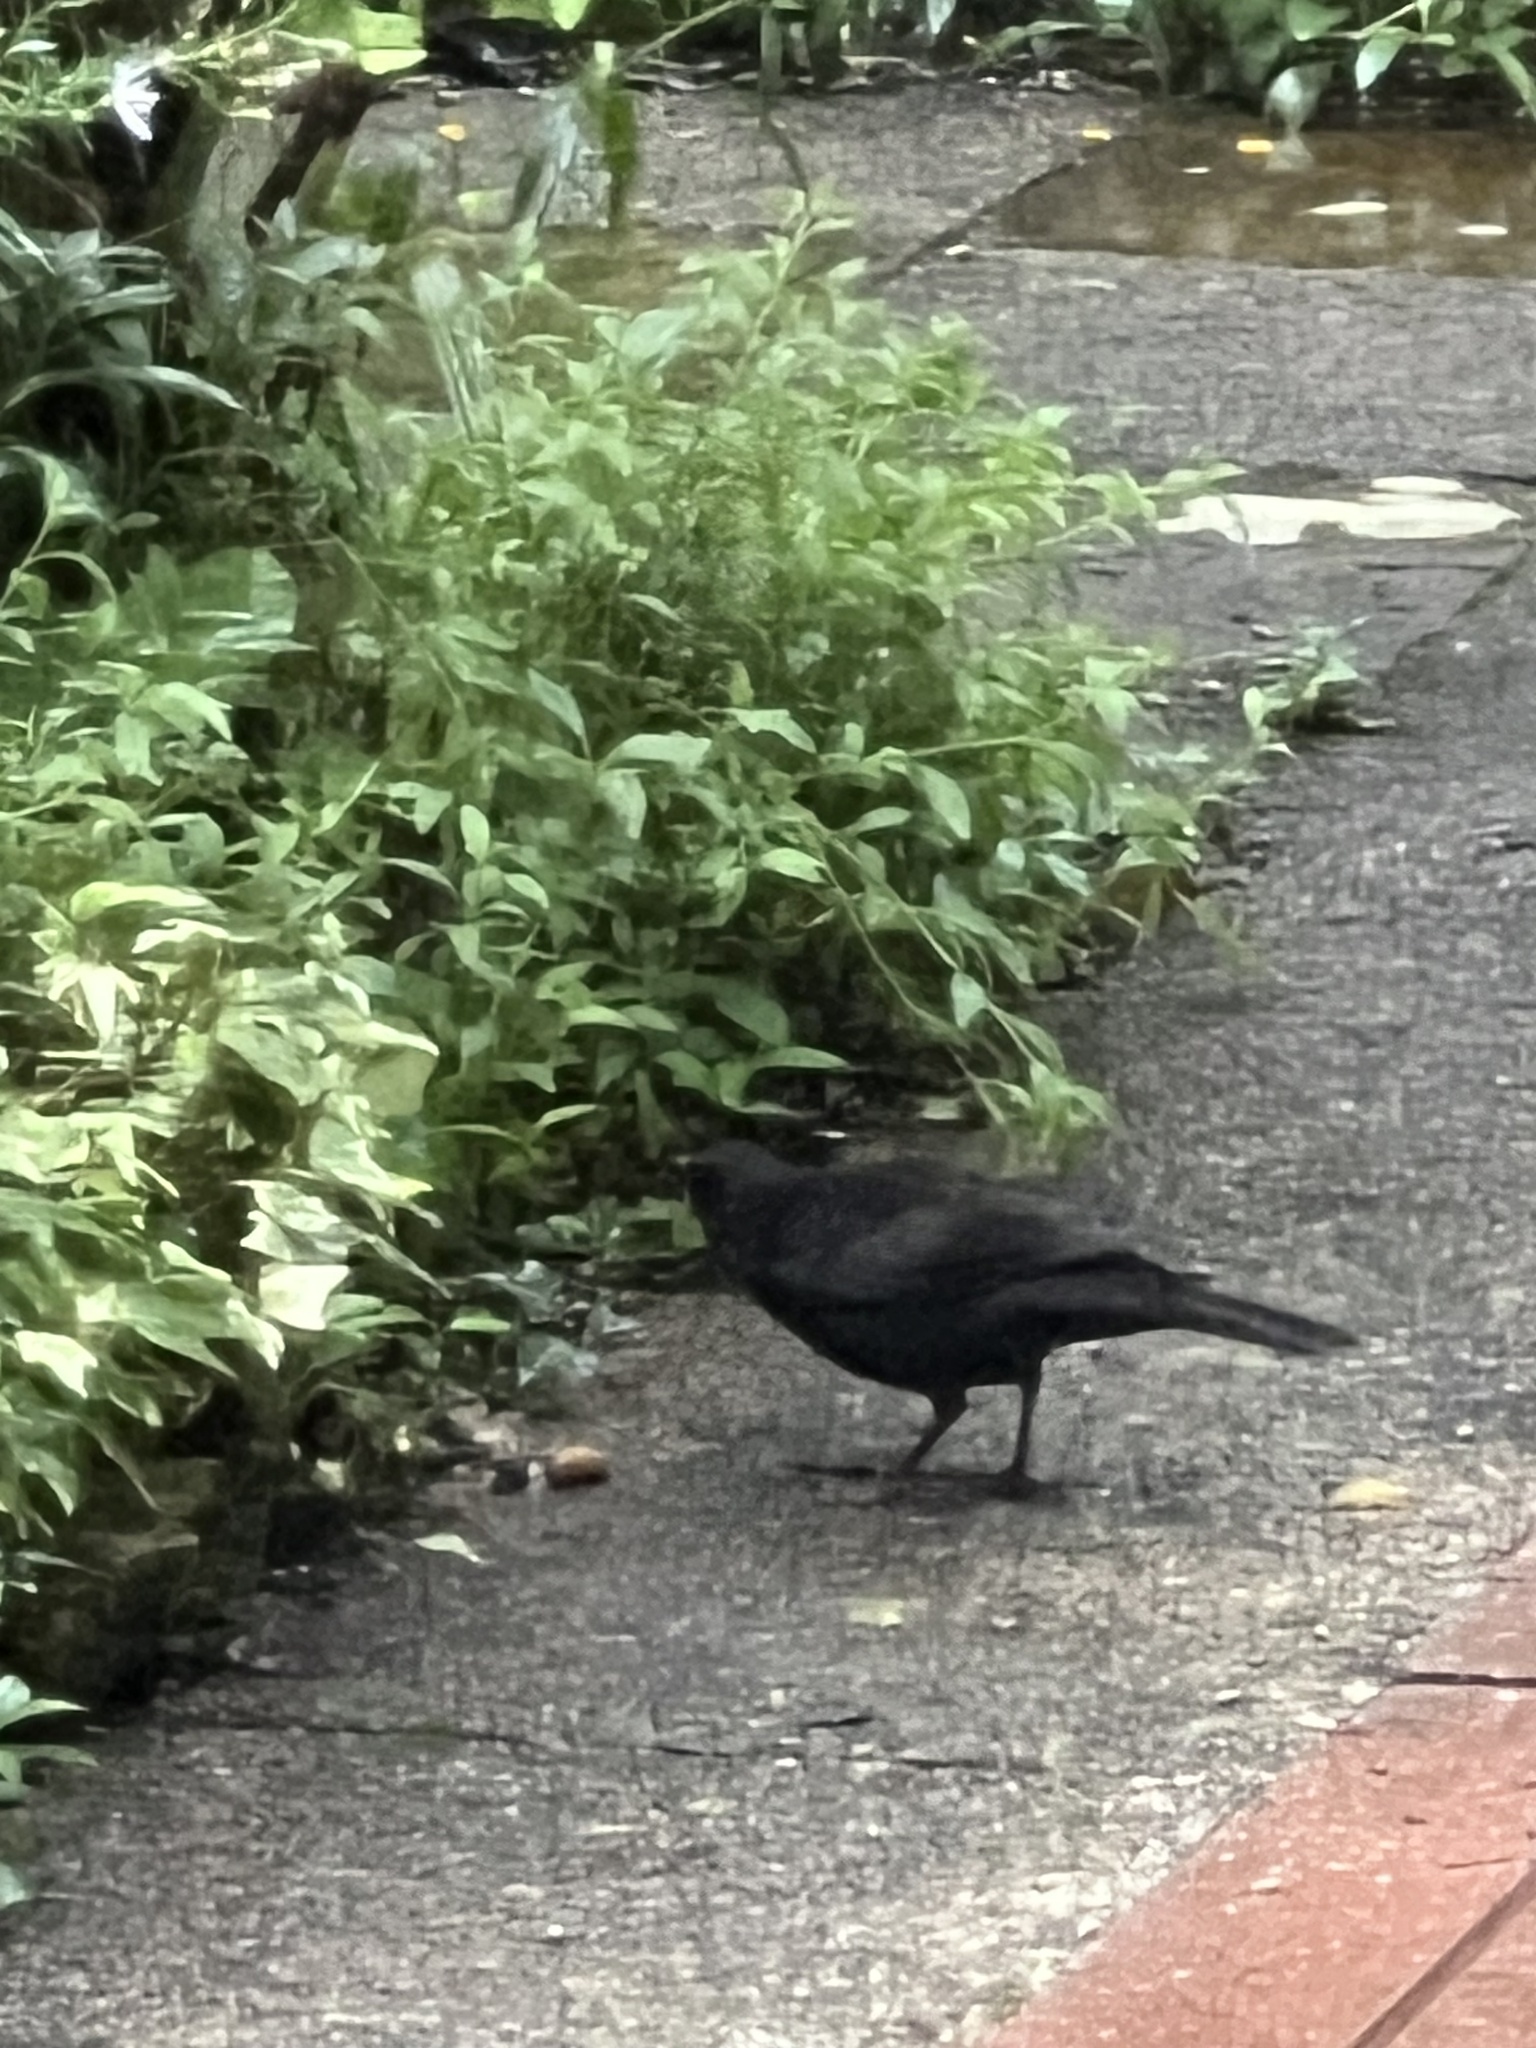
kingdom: Animalia
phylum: Chordata
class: Aves
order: Passeriformes
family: Turdidae
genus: Turdus
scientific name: Turdus merula
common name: Common blackbird
